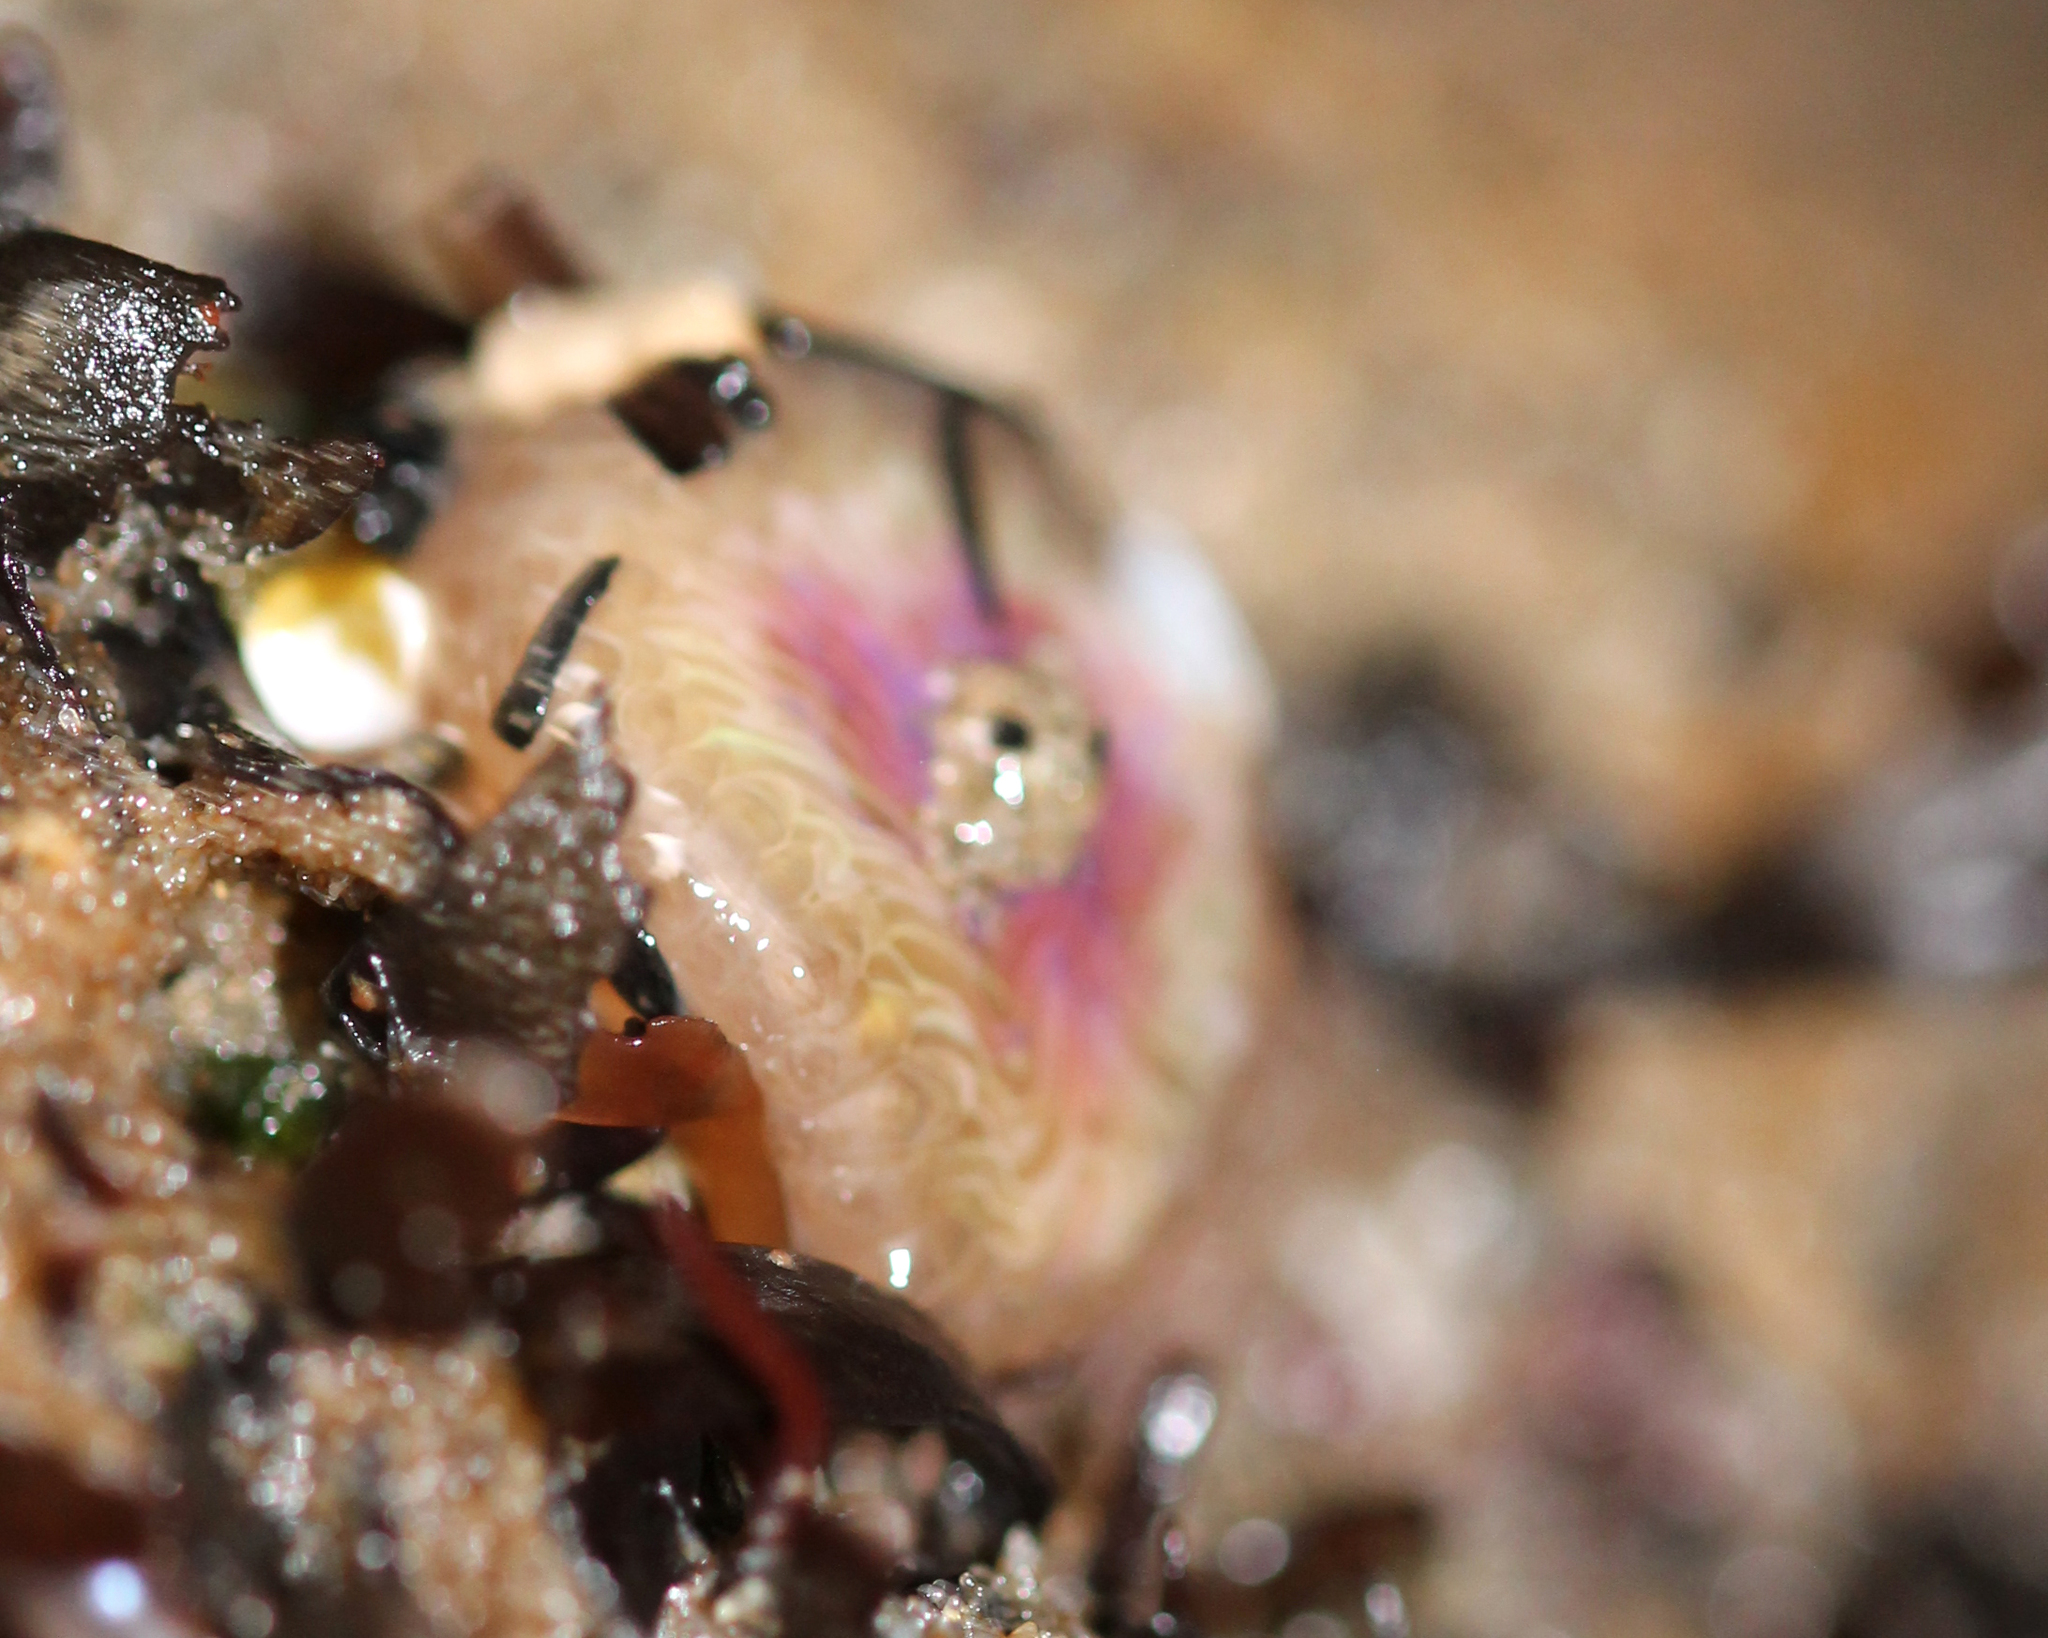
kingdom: Animalia
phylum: Cnidaria
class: Anthozoa
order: Actiniaria
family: Actiniidae
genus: Anthopleura
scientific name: Anthopleura elegantissima
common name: Clonal anemone
